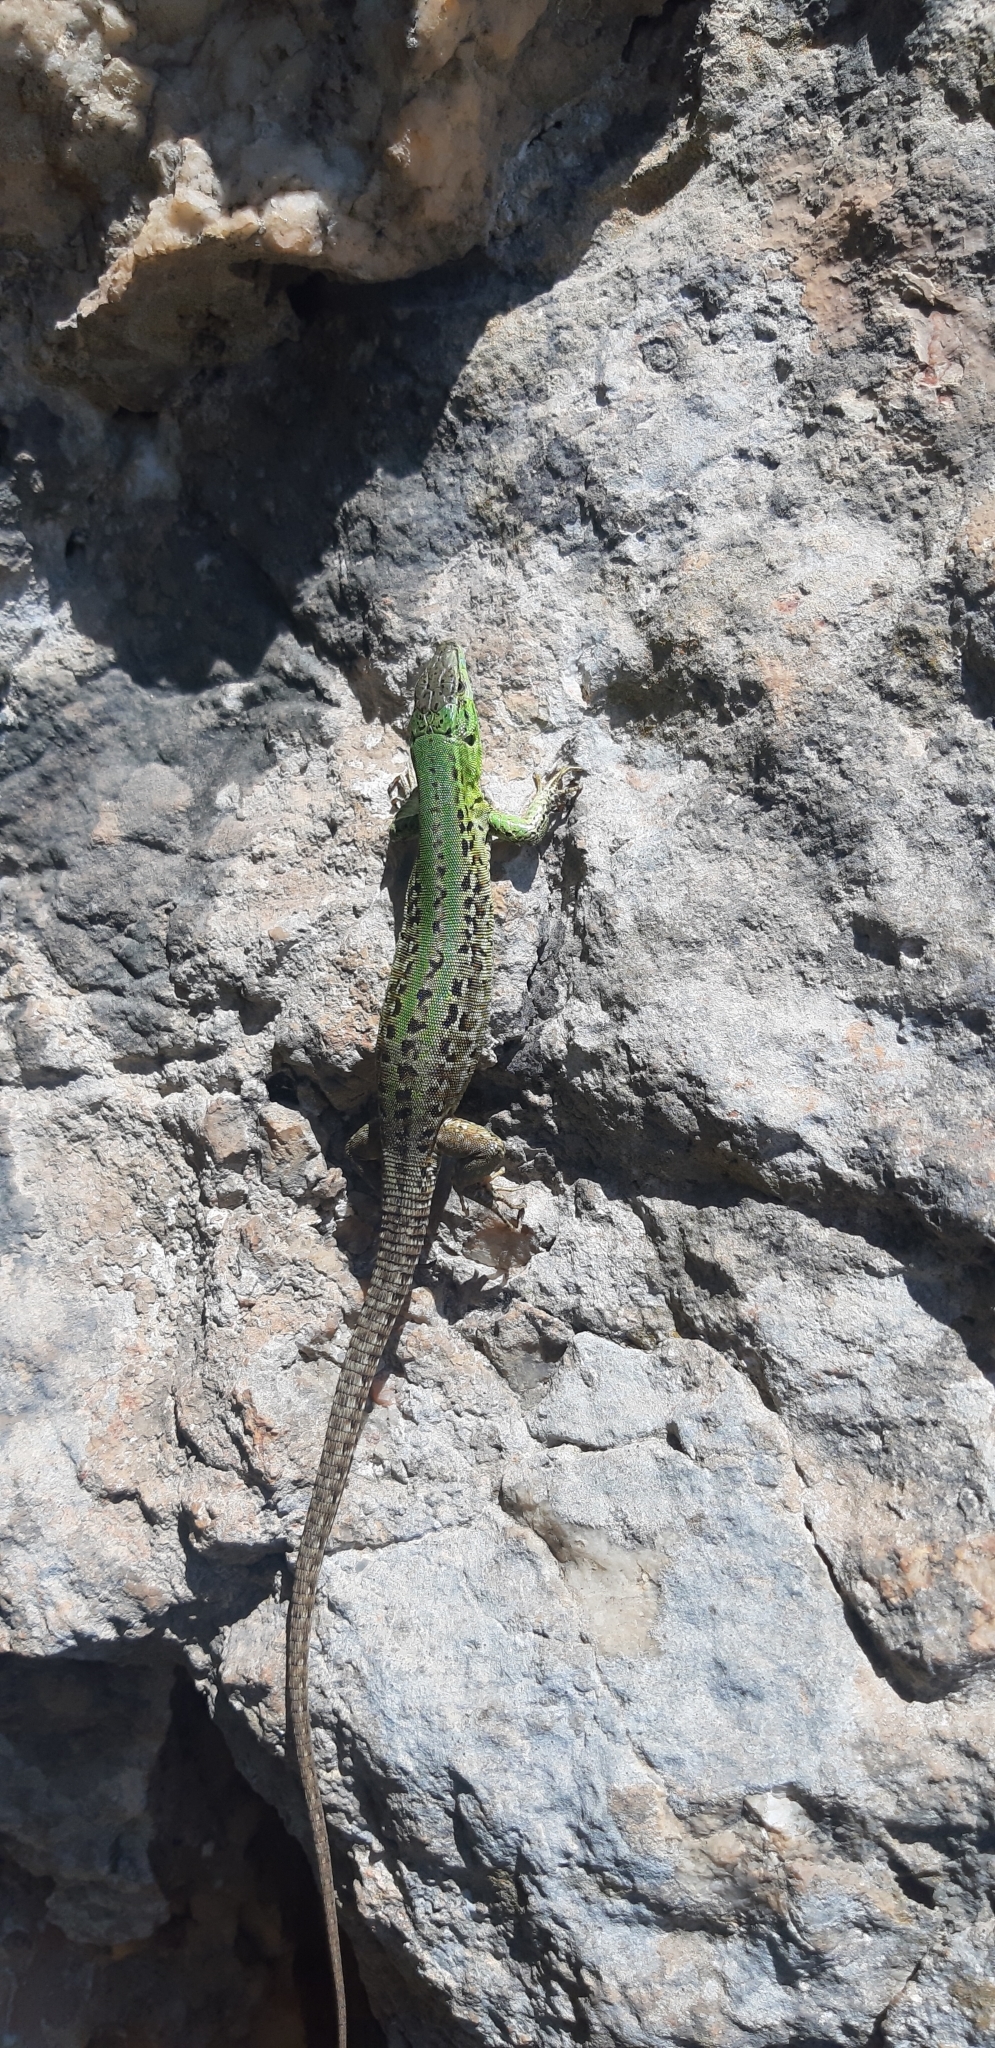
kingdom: Animalia
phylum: Chordata
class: Squamata
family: Lacertidae
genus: Podarcis
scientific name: Podarcis siculus
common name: Italian wall lizard
